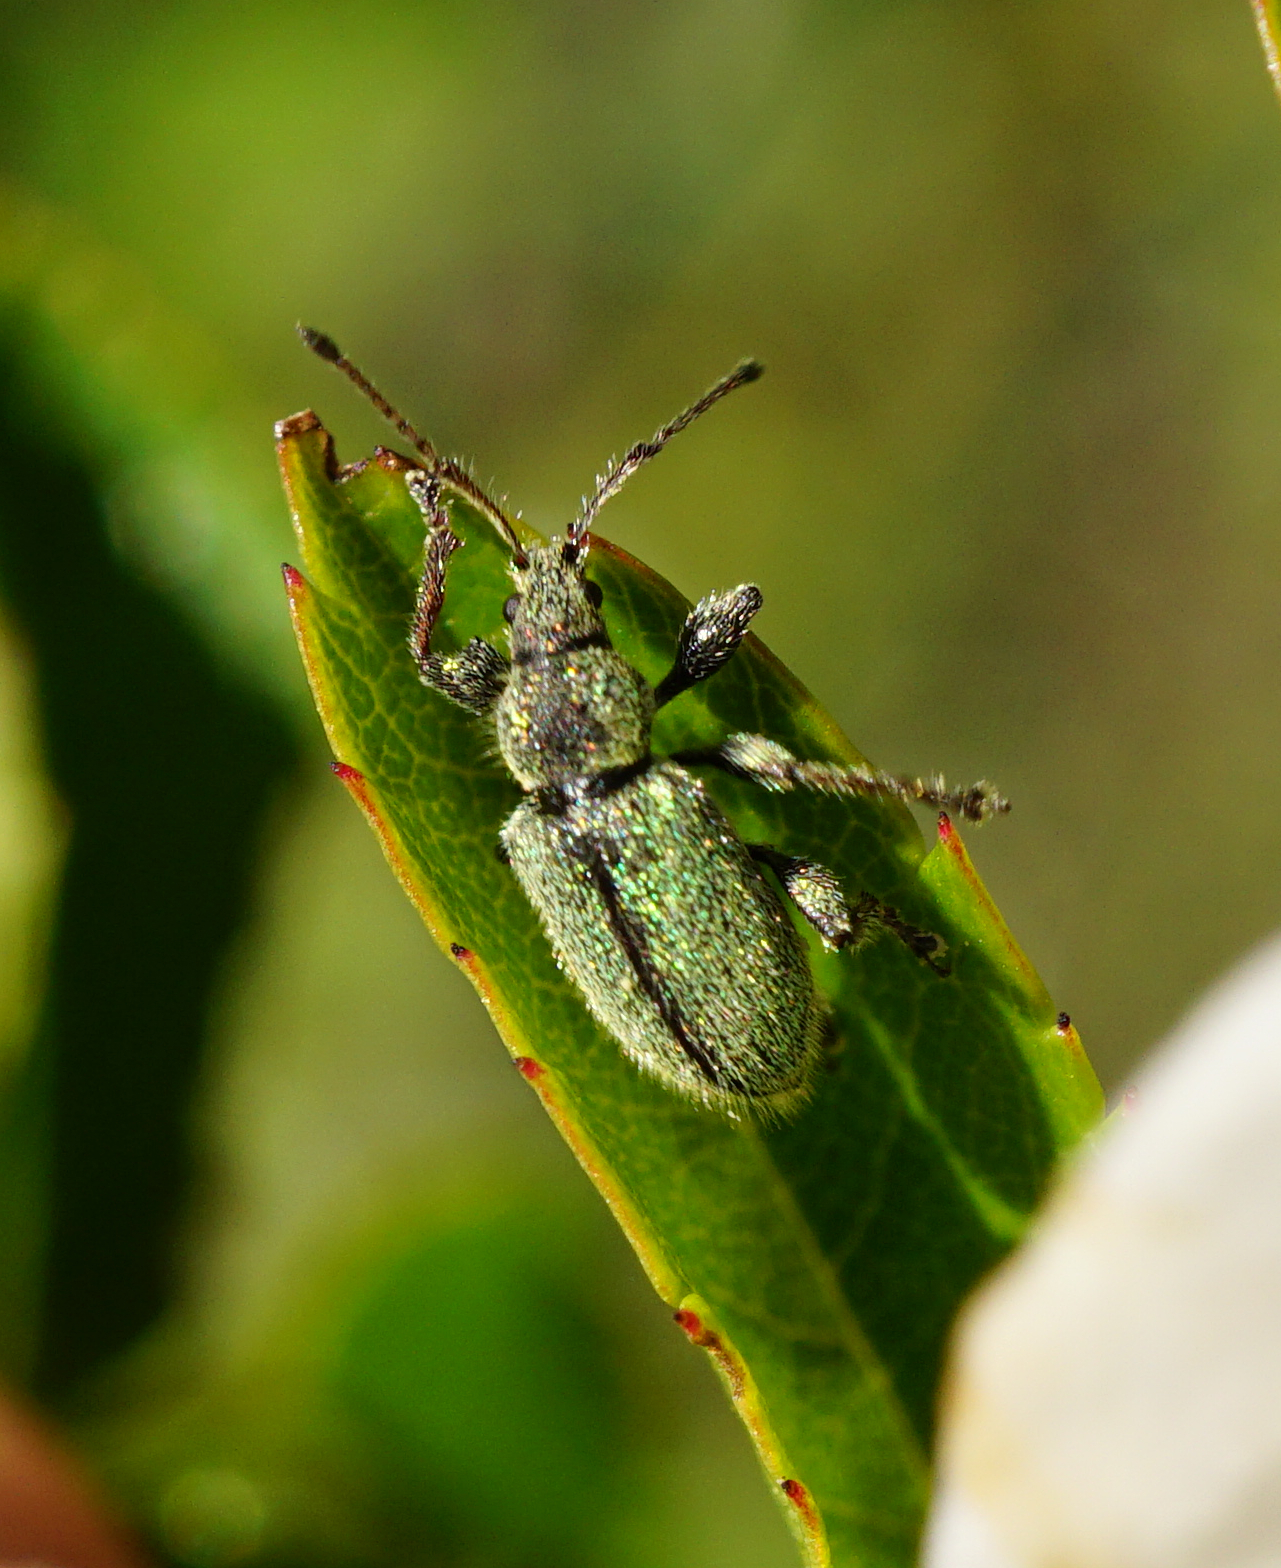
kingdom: Animalia
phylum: Arthropoda
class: Insecta
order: Coleoptera
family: Curculionidae
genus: Phyllobius
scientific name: Phyllobius betulinus
